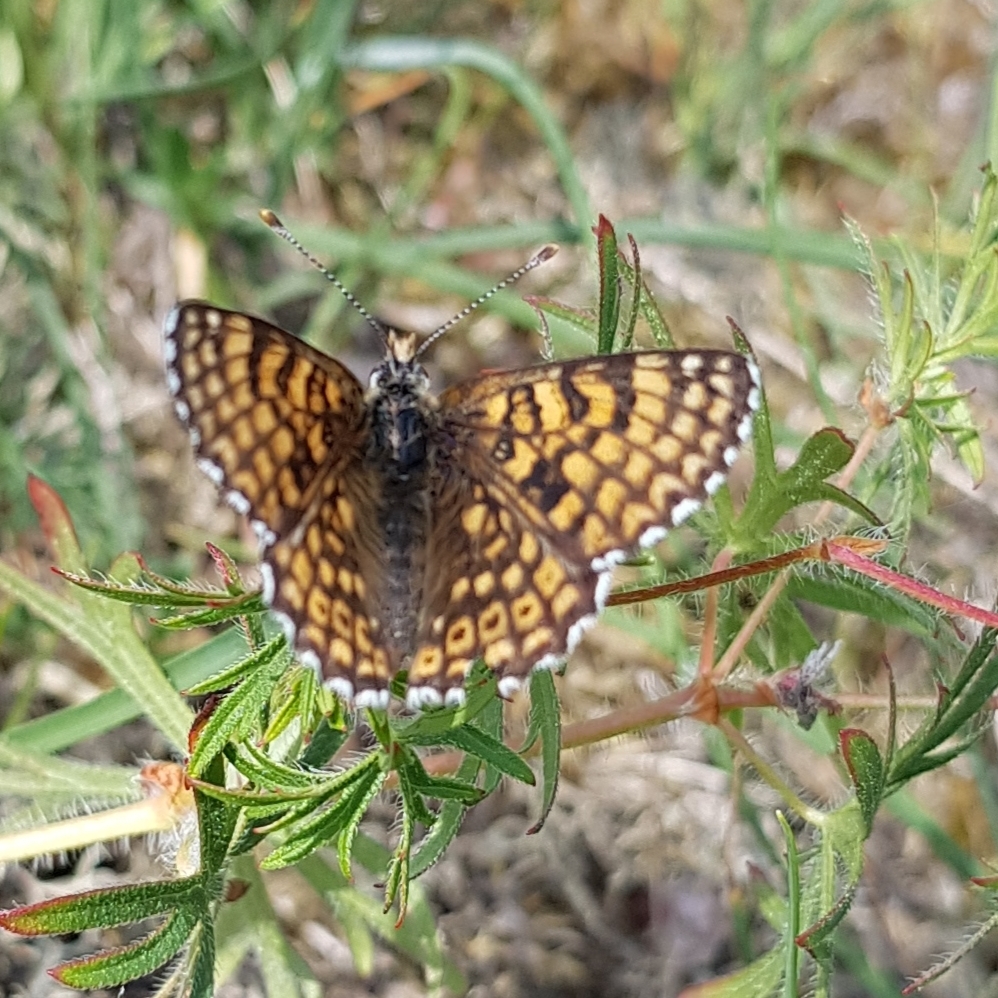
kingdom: Animalia
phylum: Arthropoda
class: Insecta
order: Lepidoptera
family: Nymphalidae
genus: Melitaea
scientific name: Melitaea cinxia
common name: Glanville fritillary
